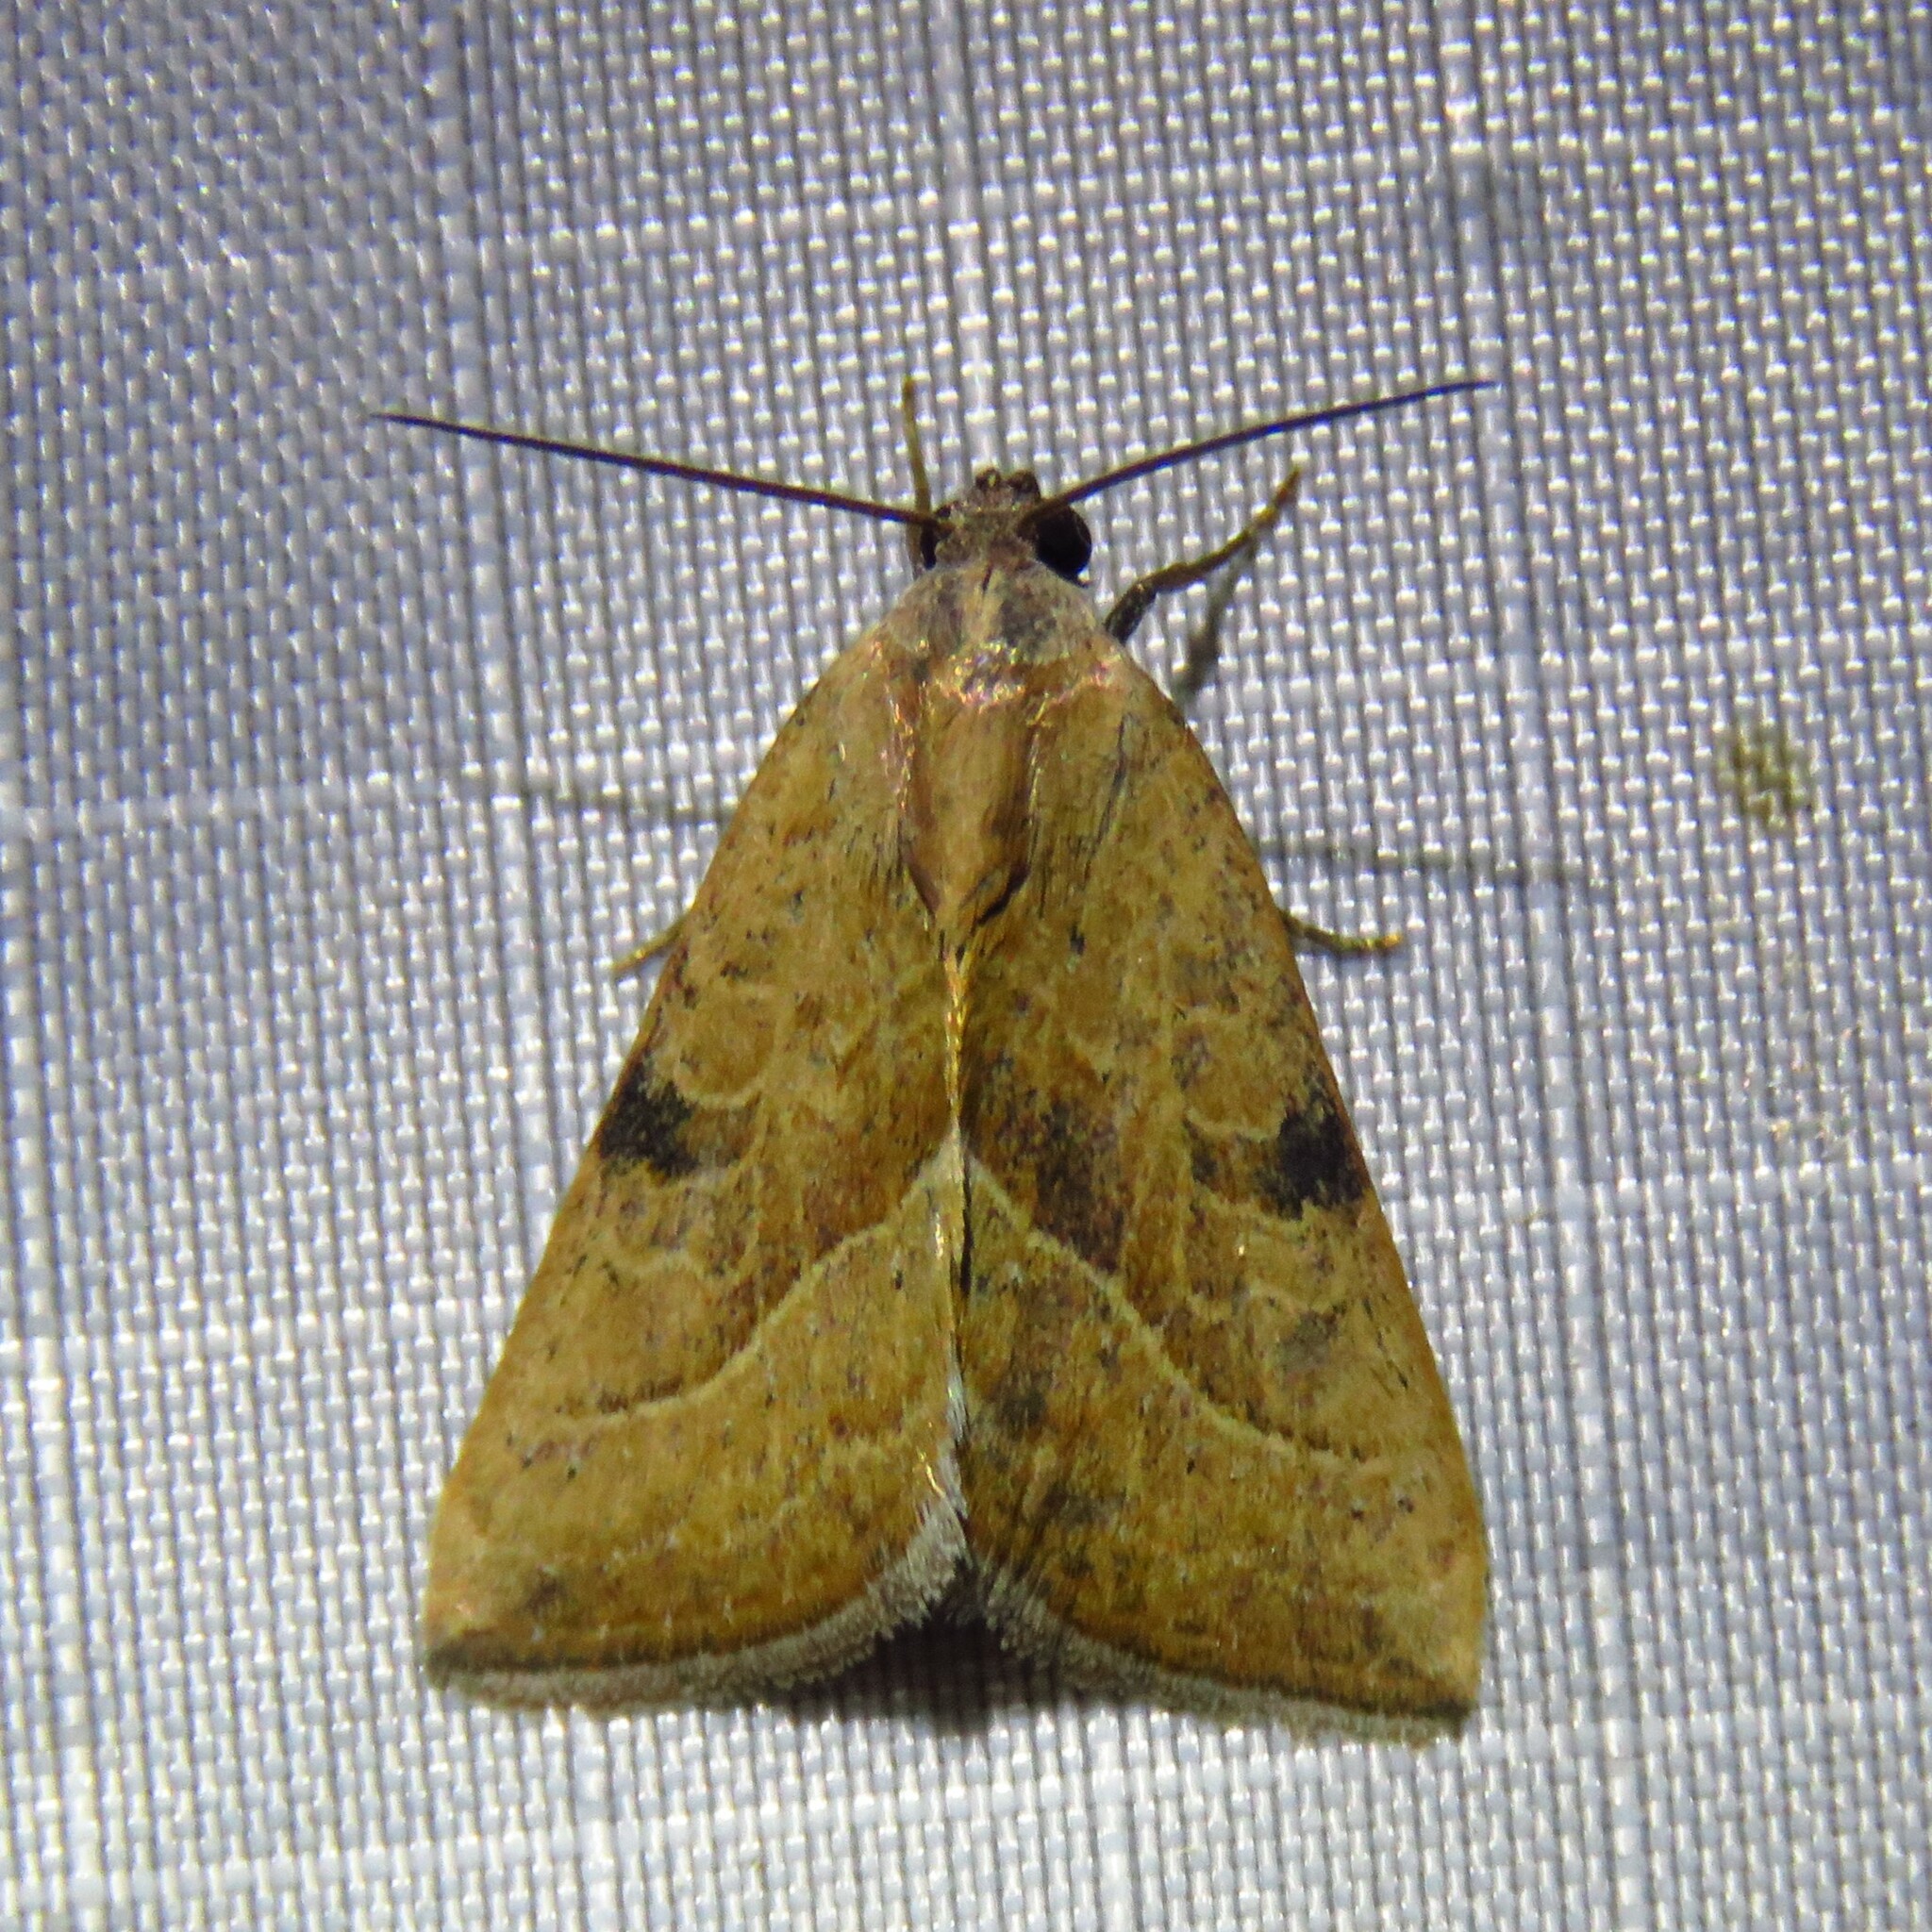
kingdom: Animalia
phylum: Arthropoda
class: Insecta
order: Lepidoptera
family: Noctuidae
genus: Galgula
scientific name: Galgula partita
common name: Wedgeling
